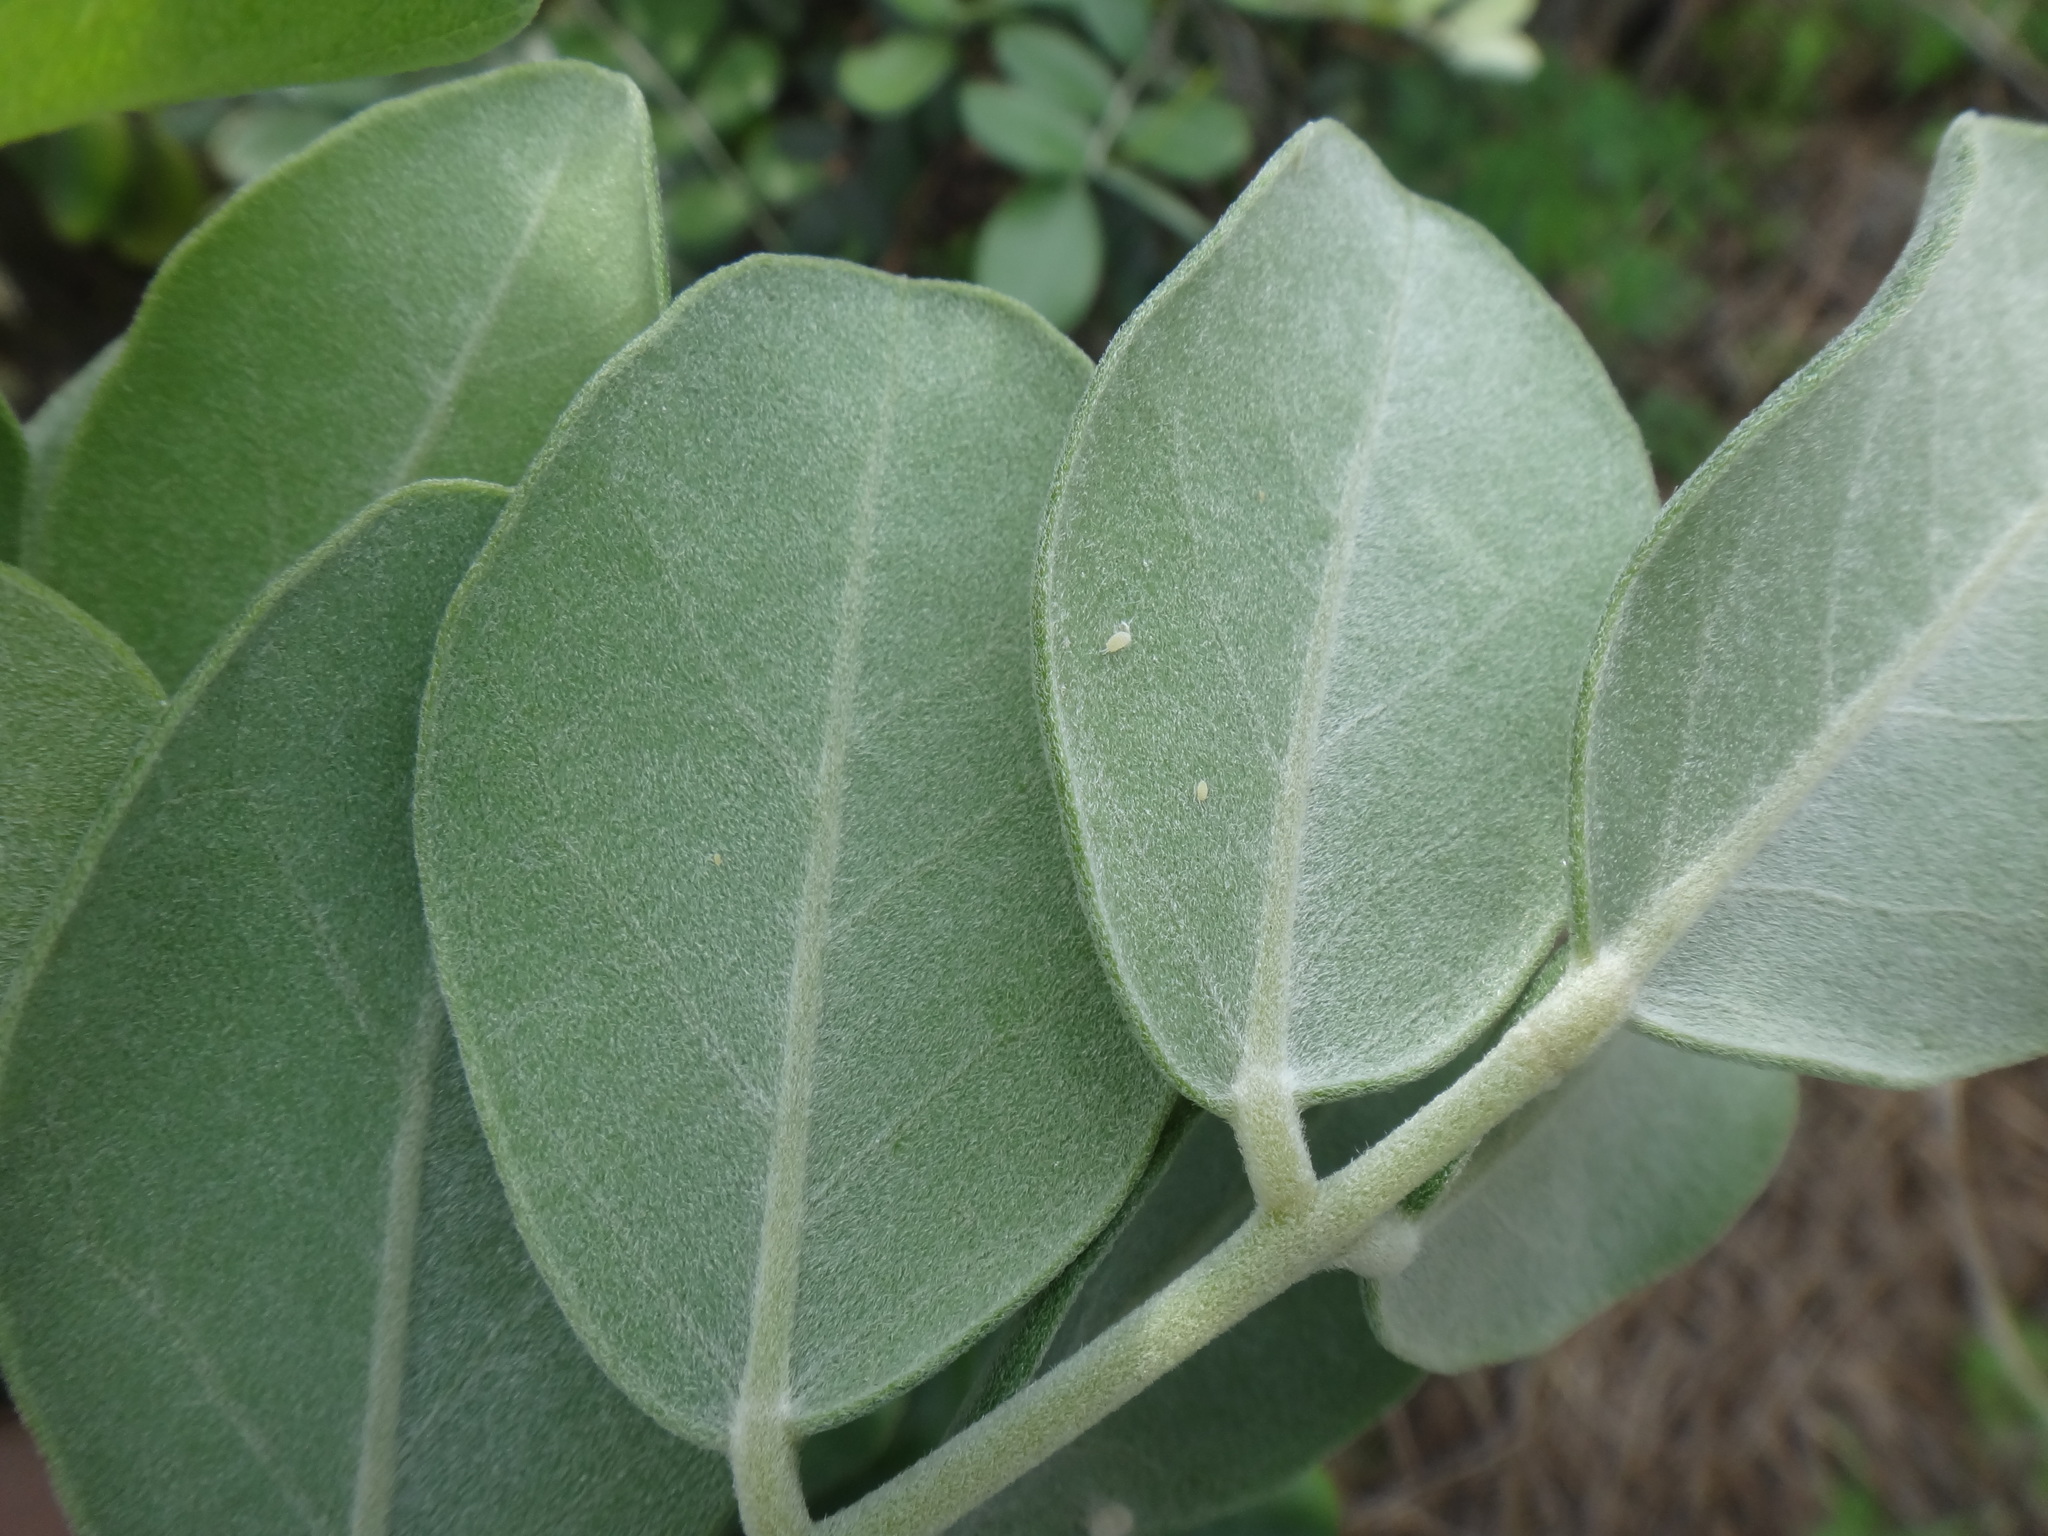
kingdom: Plantae
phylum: Tracheophyta
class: Magnoliopsida
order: Fabales
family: Fabaceae
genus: Sophora
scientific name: Sophora tomentosa
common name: Yellow necklacepod
